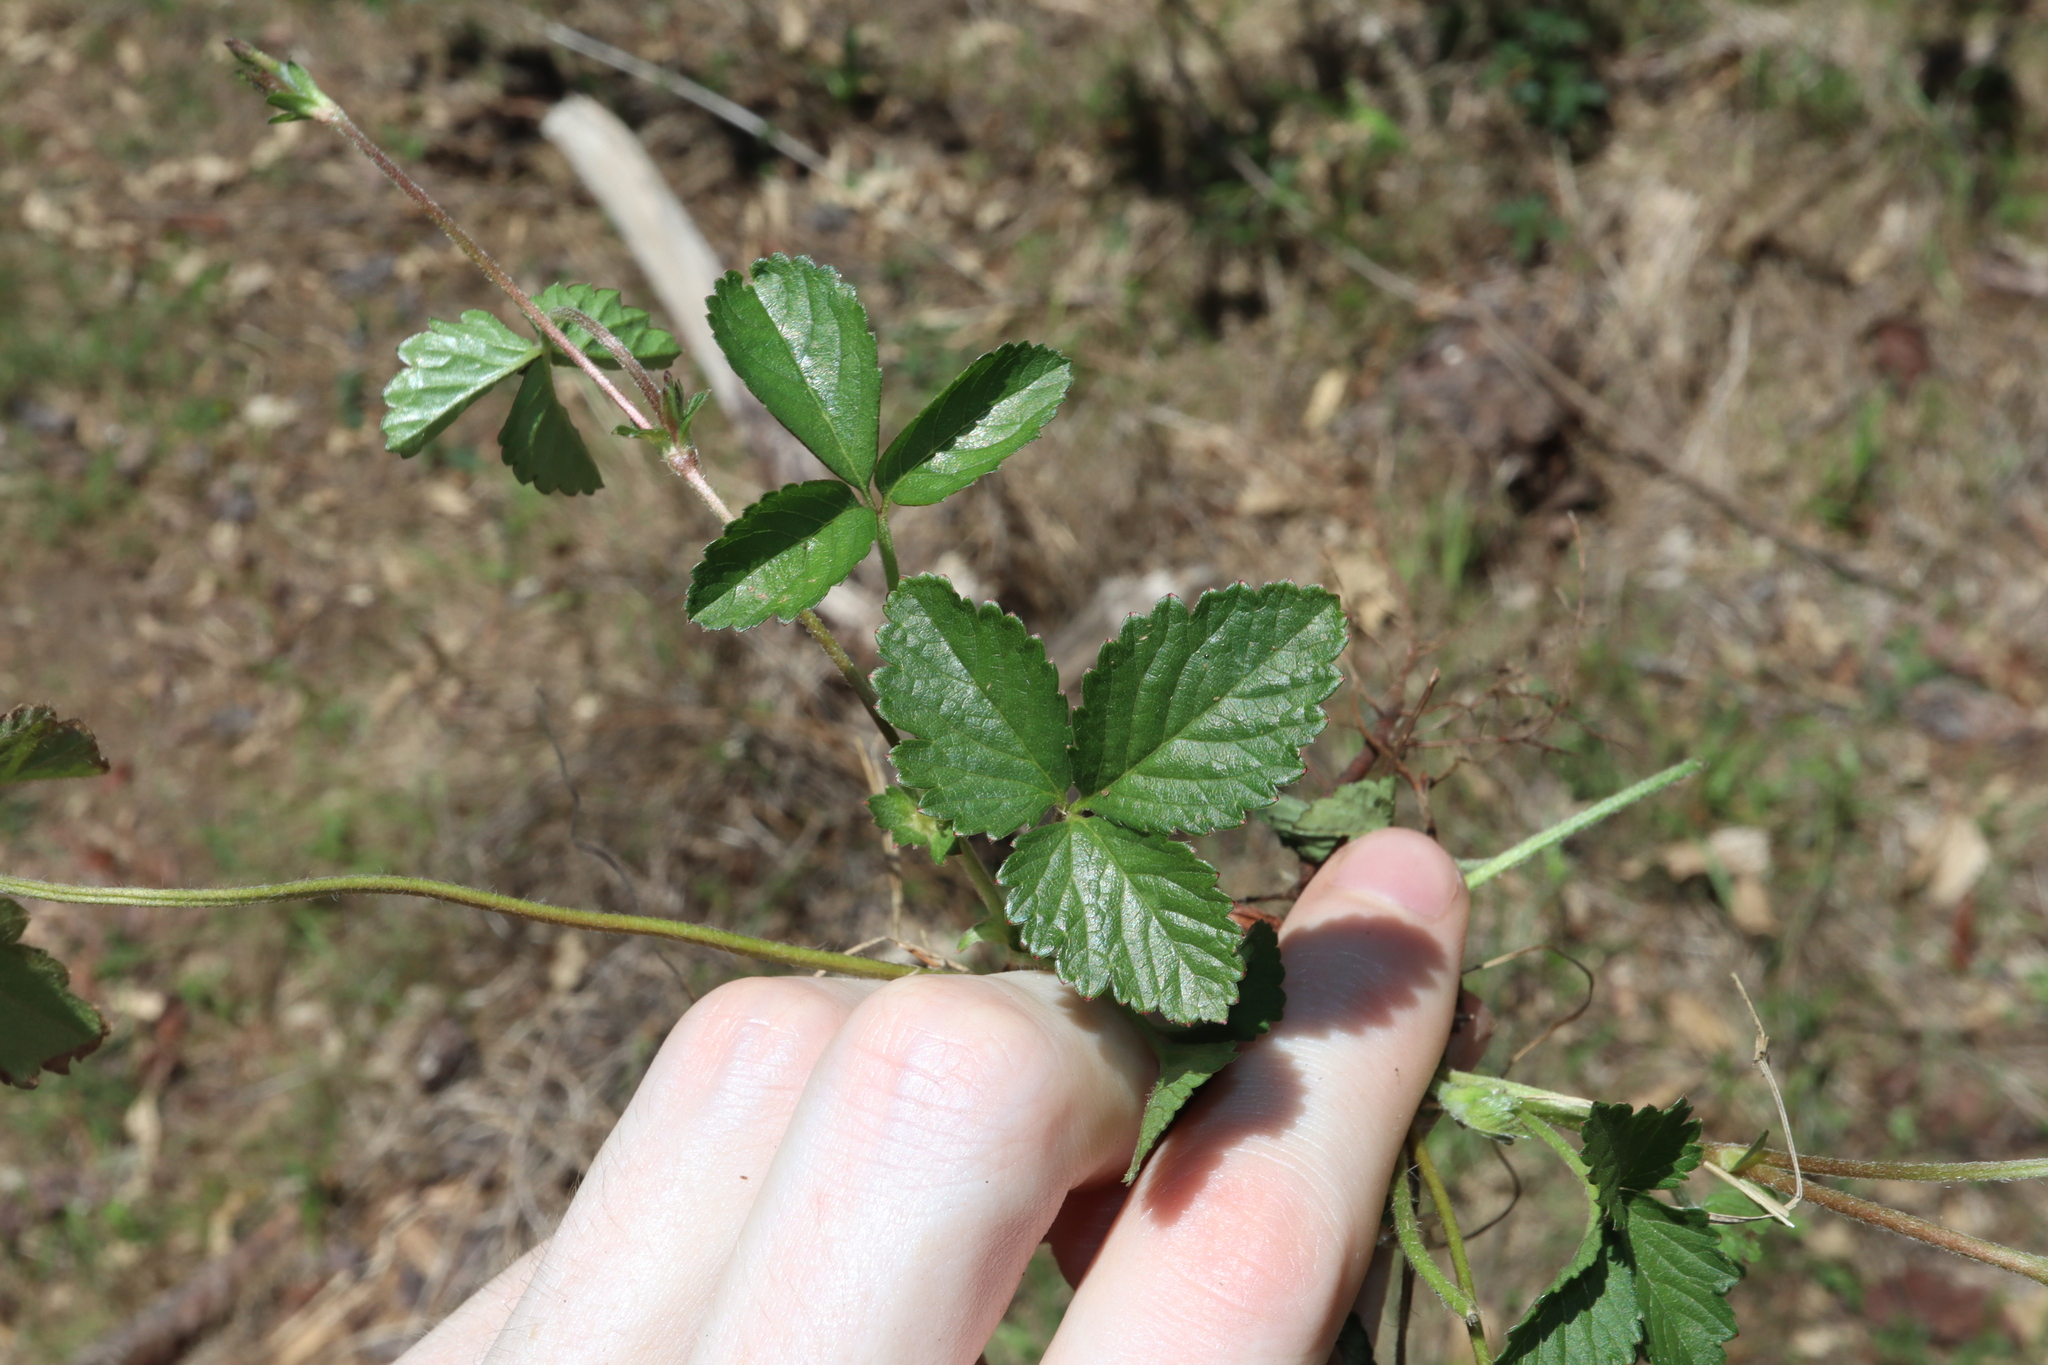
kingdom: Plantae
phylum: Tracheophyta
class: Magnoliopsida
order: Rosales
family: Rosaceae
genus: Potentilla
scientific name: Potentilla indica
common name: Yellow-flowered strawberry
